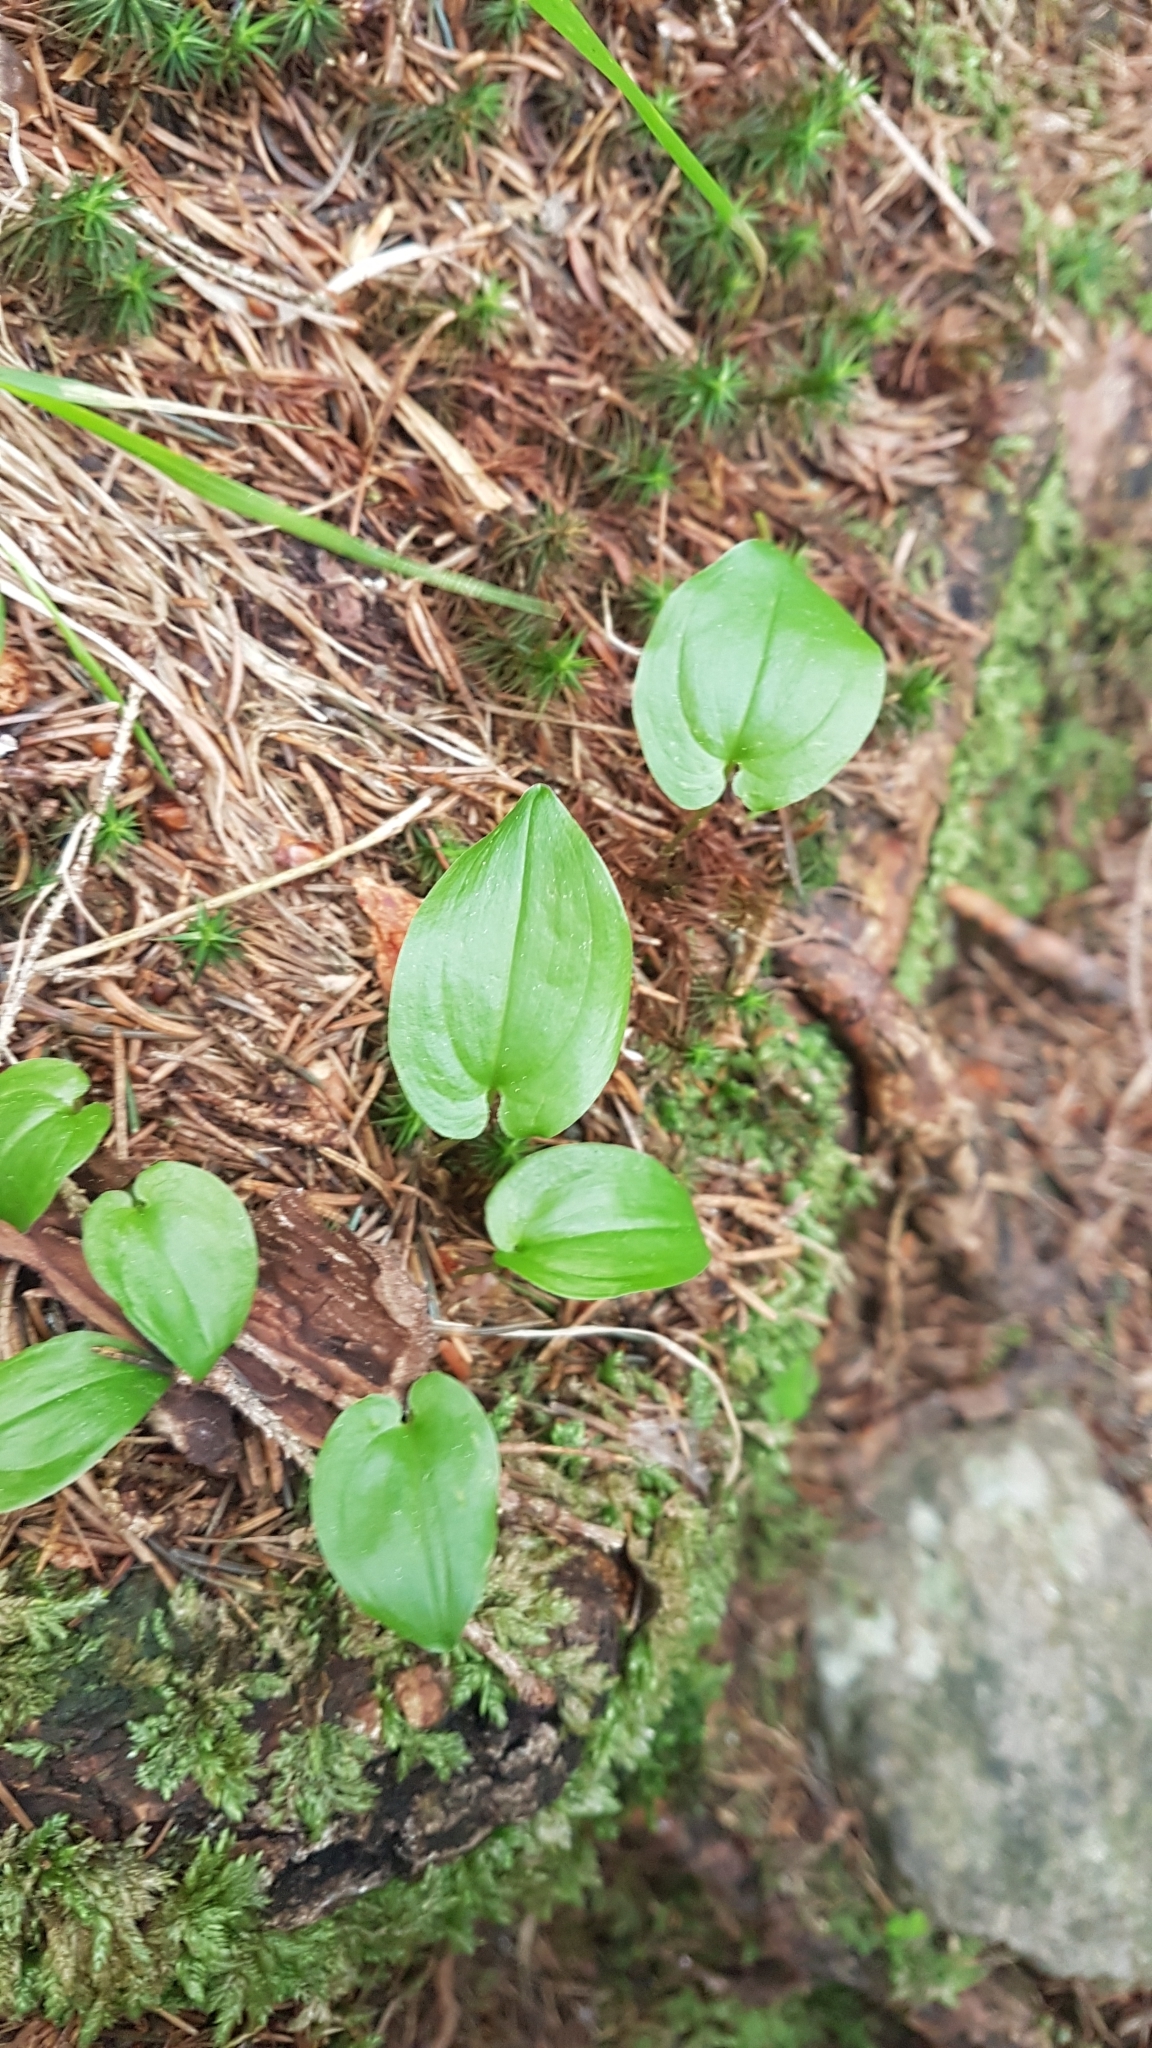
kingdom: Plantae
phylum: Tracheophyta
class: Liliopsida
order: Asparagales
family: Asparagaceae
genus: Maianthemum
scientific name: Maianthemum bifolium
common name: May lily
